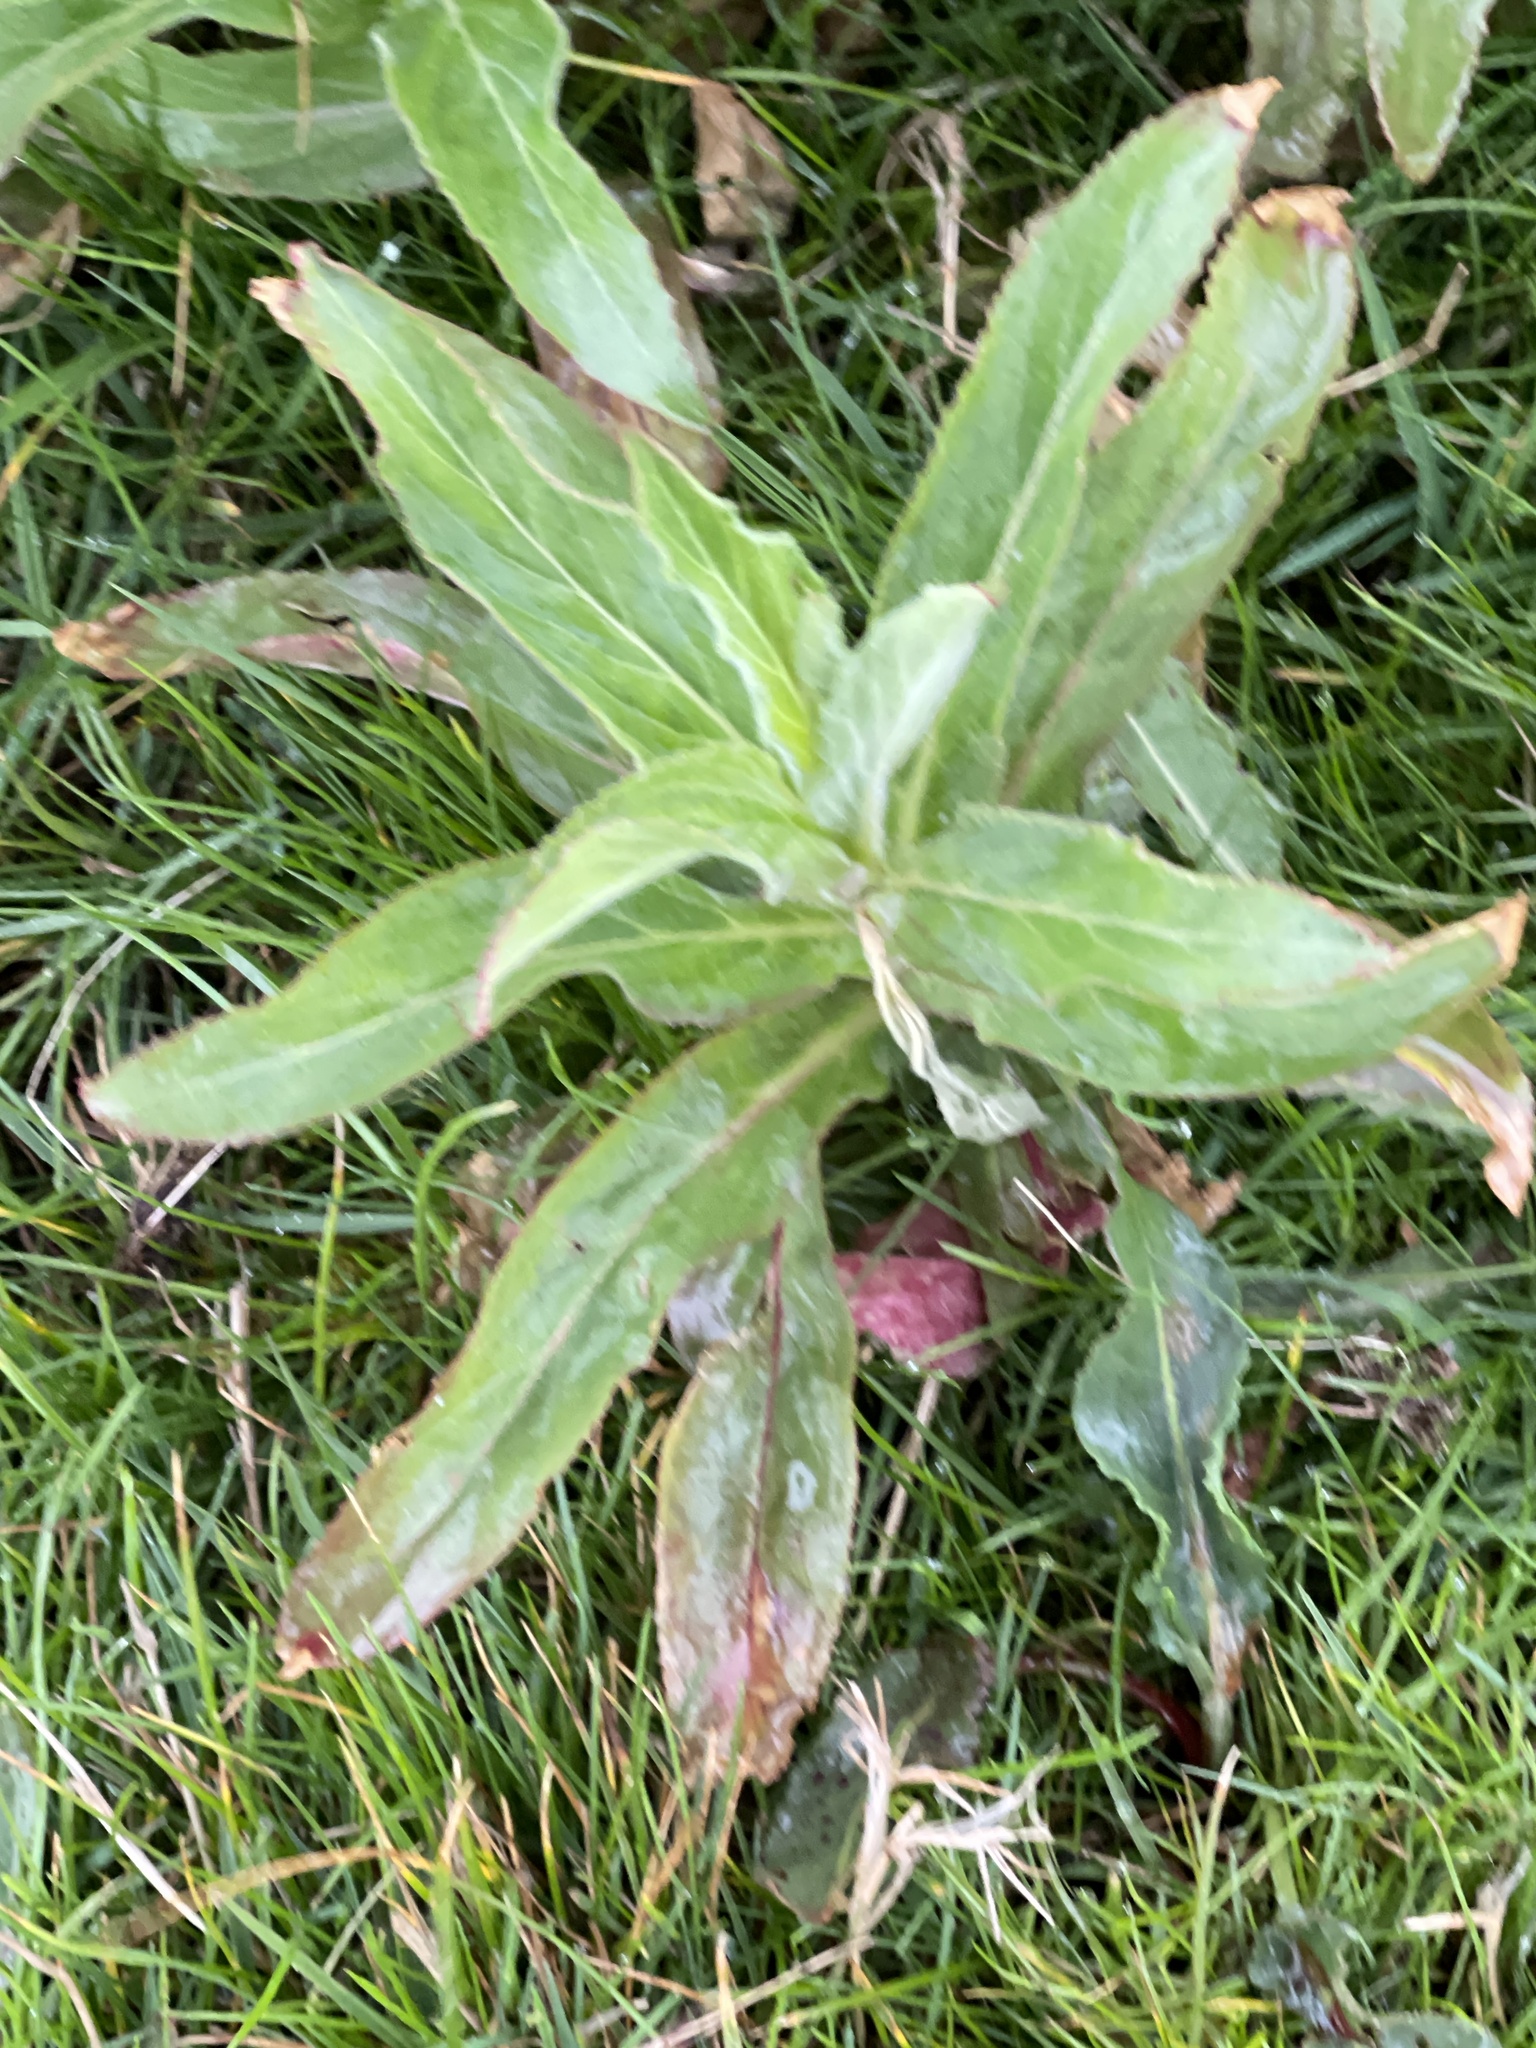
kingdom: Plantae
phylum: Tracheophyta
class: Magnoliopsida
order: Myrtales
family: Onagraceae
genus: Epilobium
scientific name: Epilobium hirsutum
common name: Great willowherb
